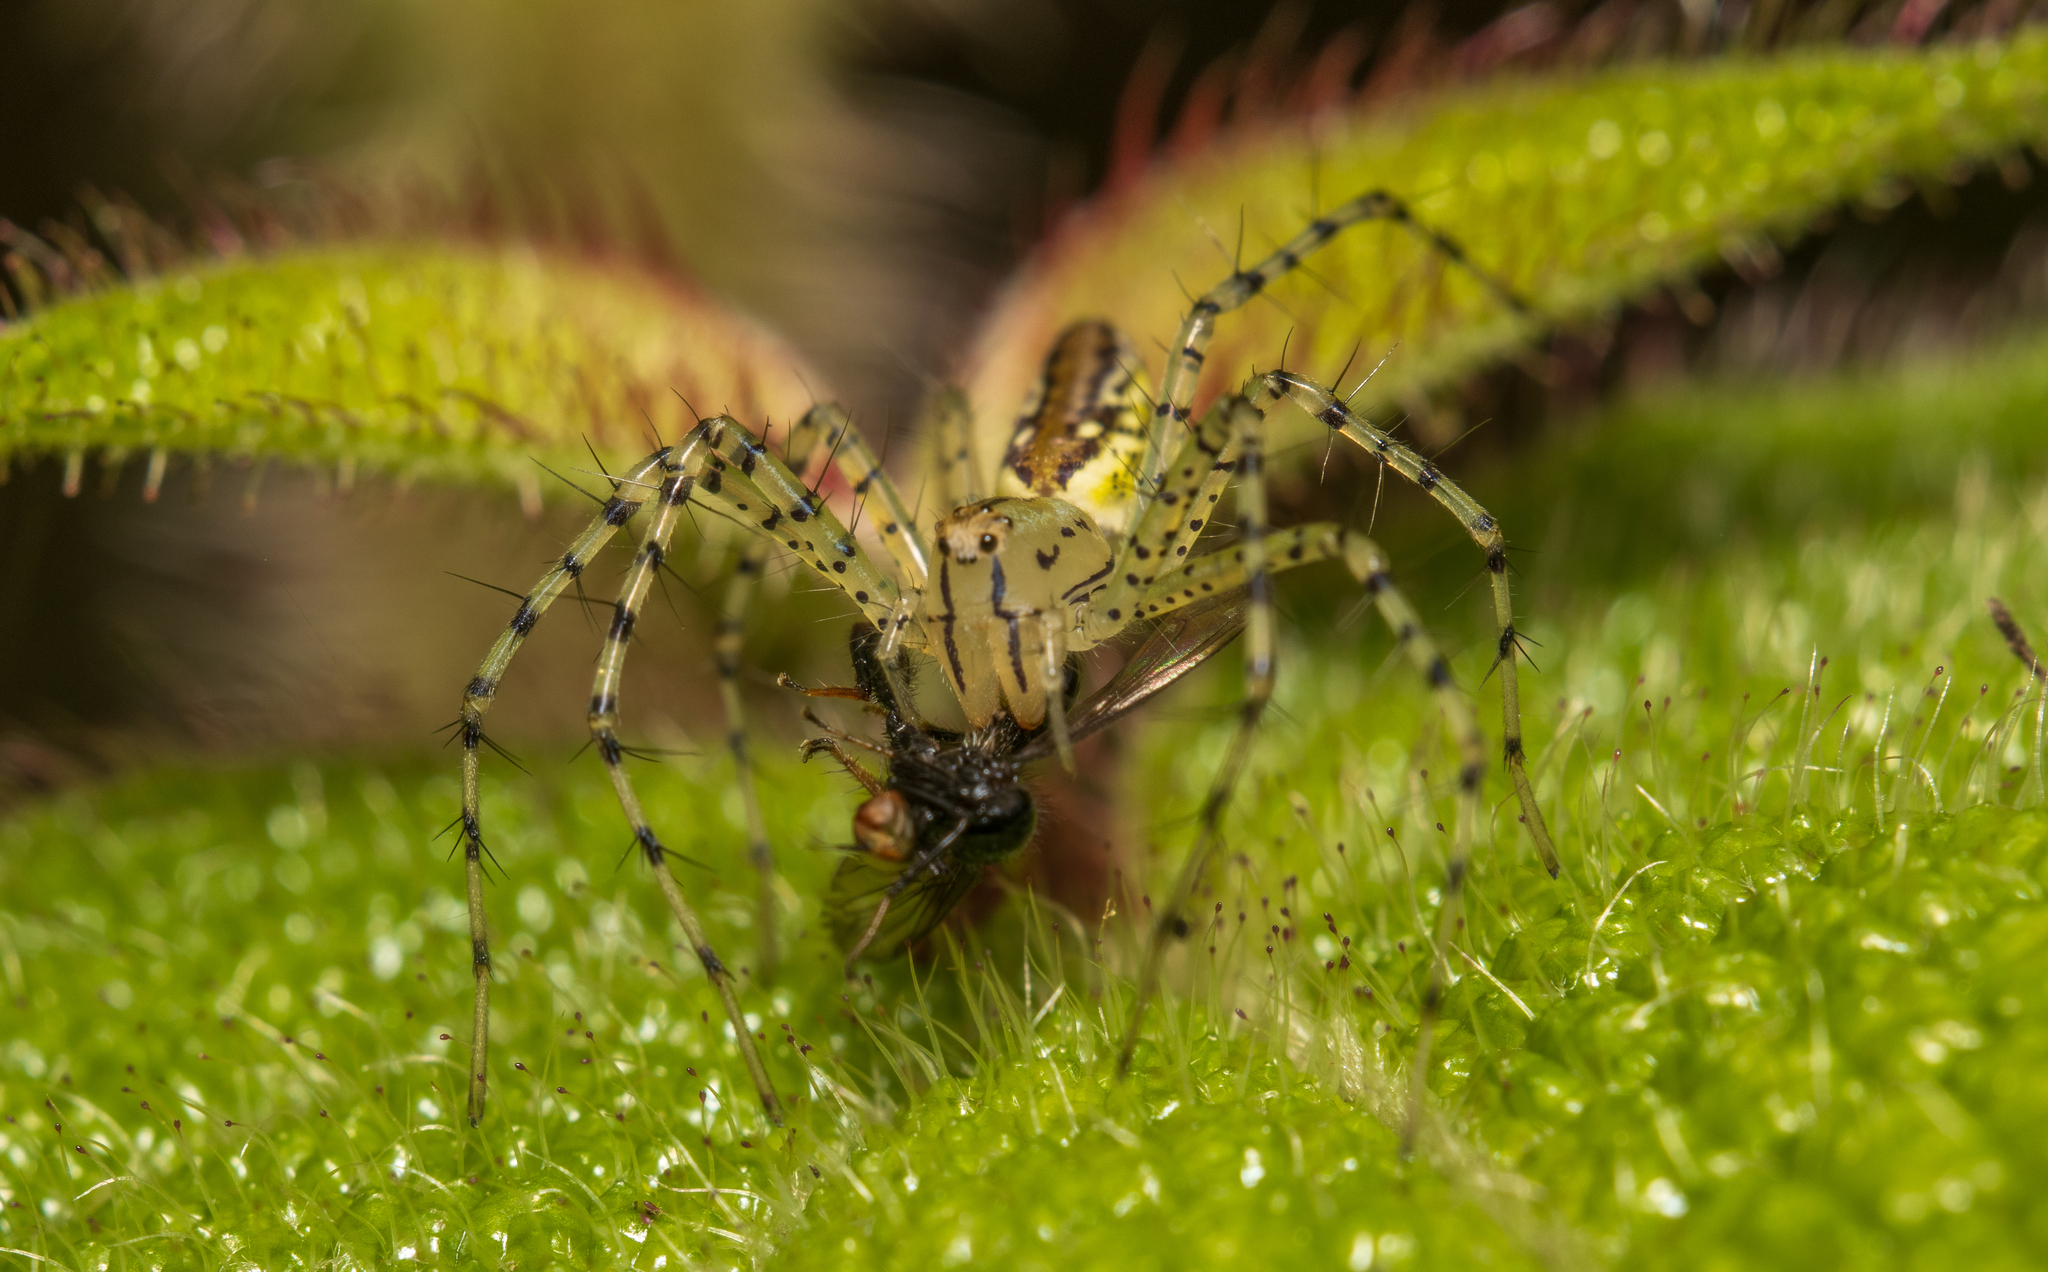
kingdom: Animalia
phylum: Arthropoda
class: Arachnida
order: Araneae
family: Oxyopidae
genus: Peucetia
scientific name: Peucetia rubrolineata
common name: Lynx spiders
